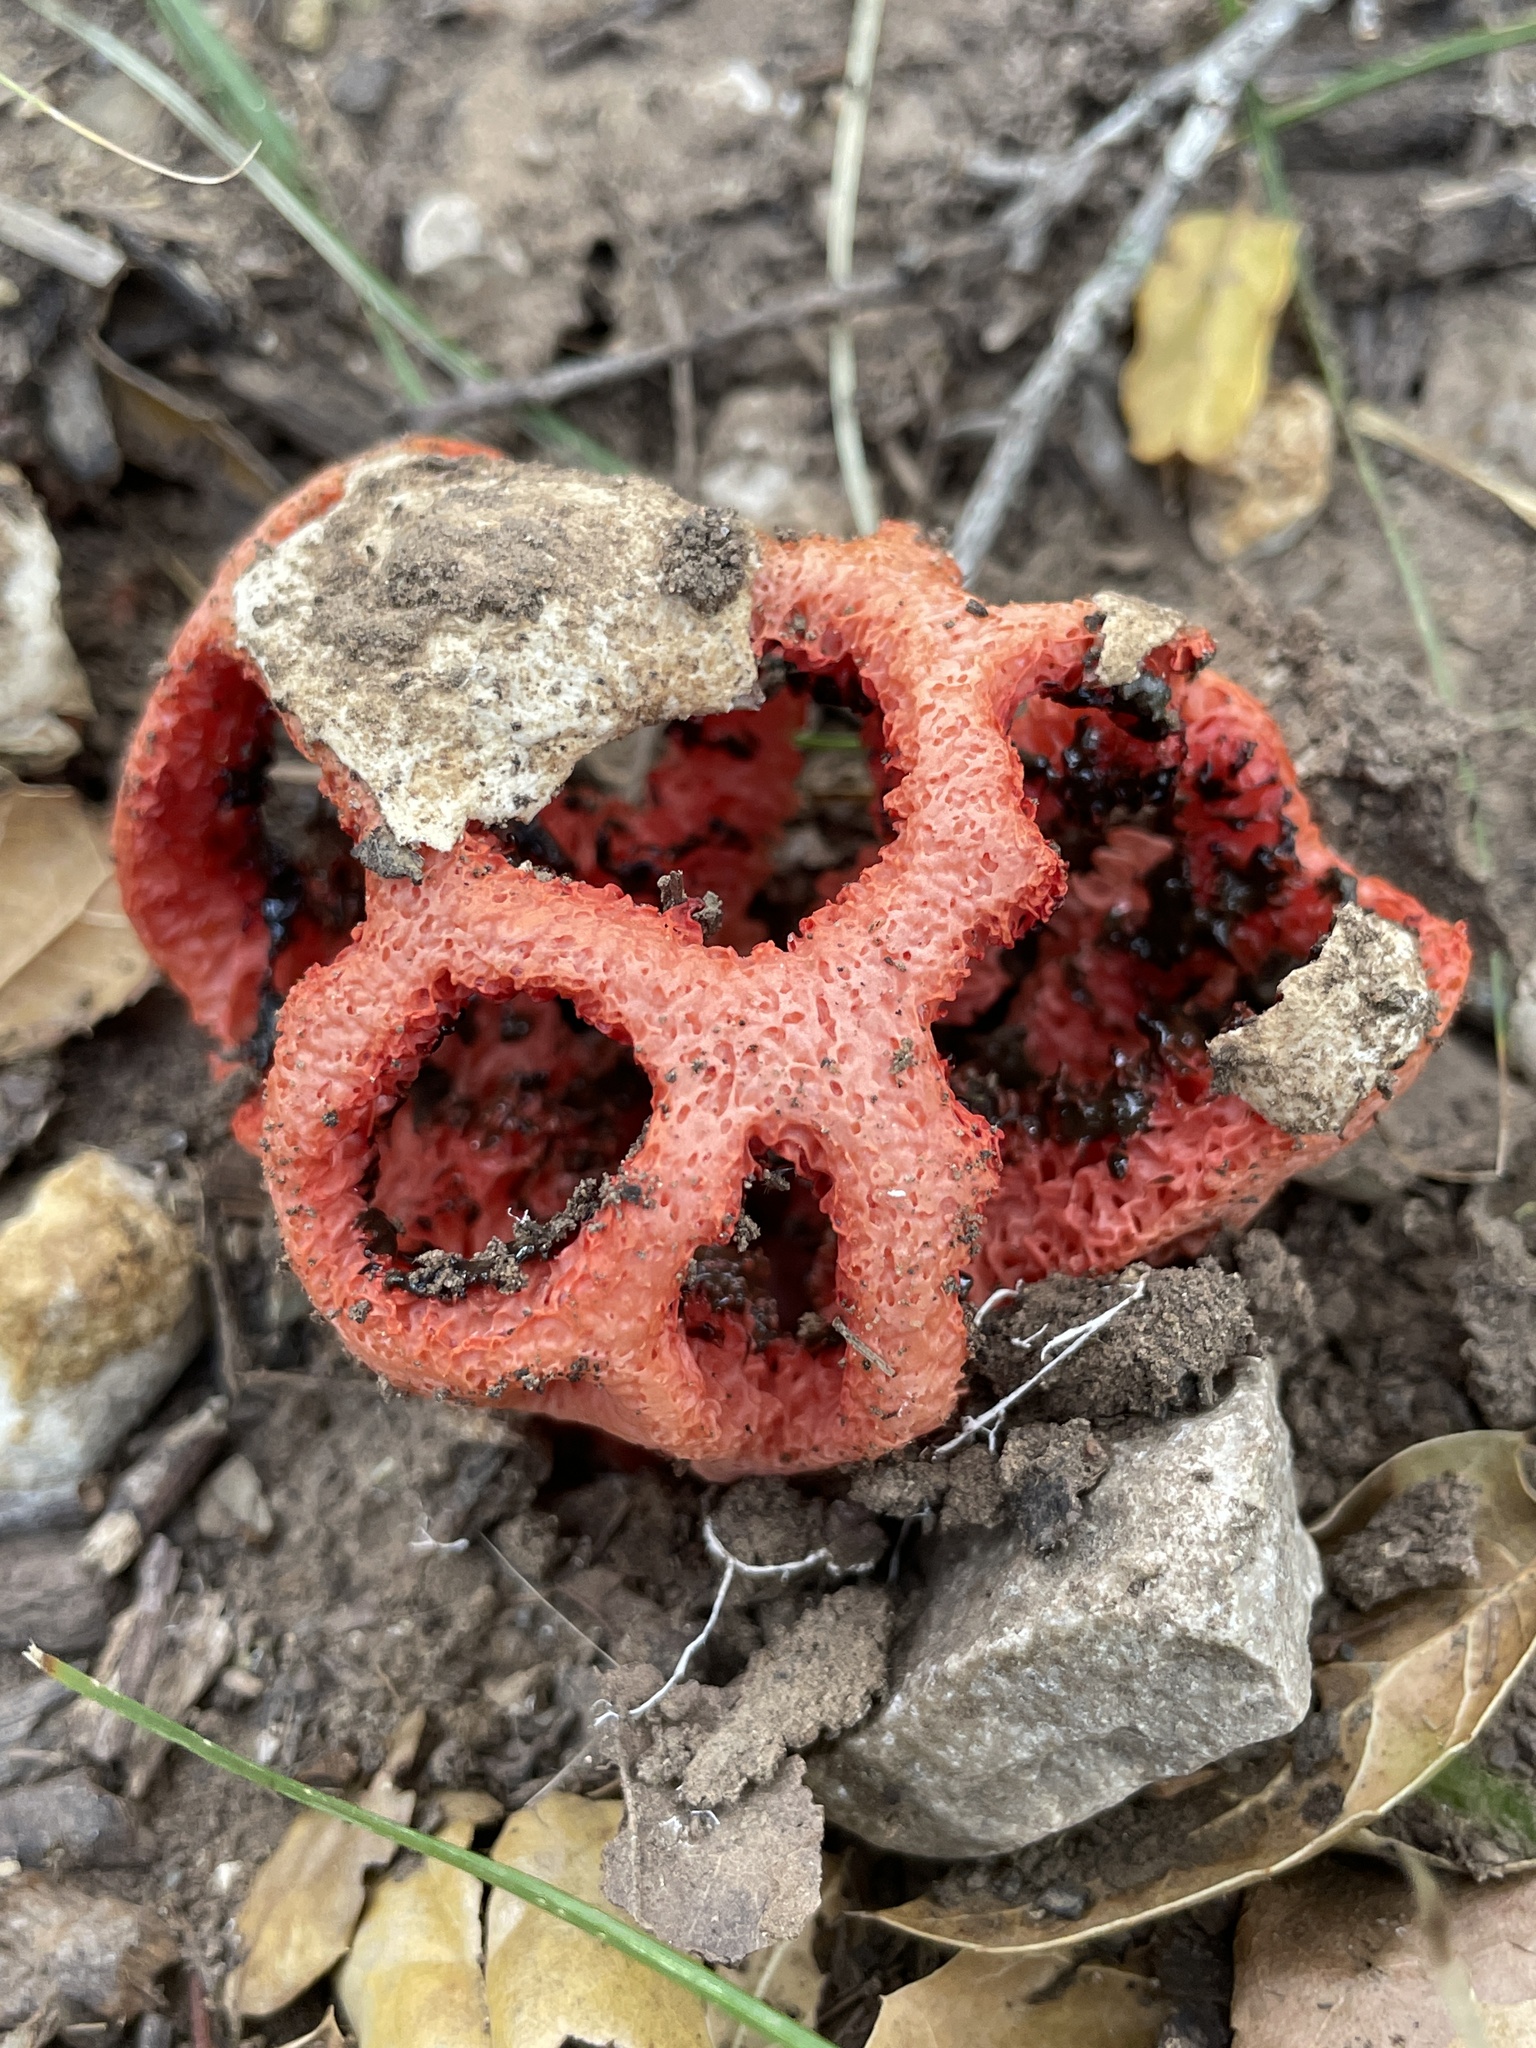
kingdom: Fungi
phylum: Basidiomycota
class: Agaricomycetes
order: Phallales
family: Phallaceae
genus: Clathrus
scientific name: Clathrus ruber
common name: Red cage
